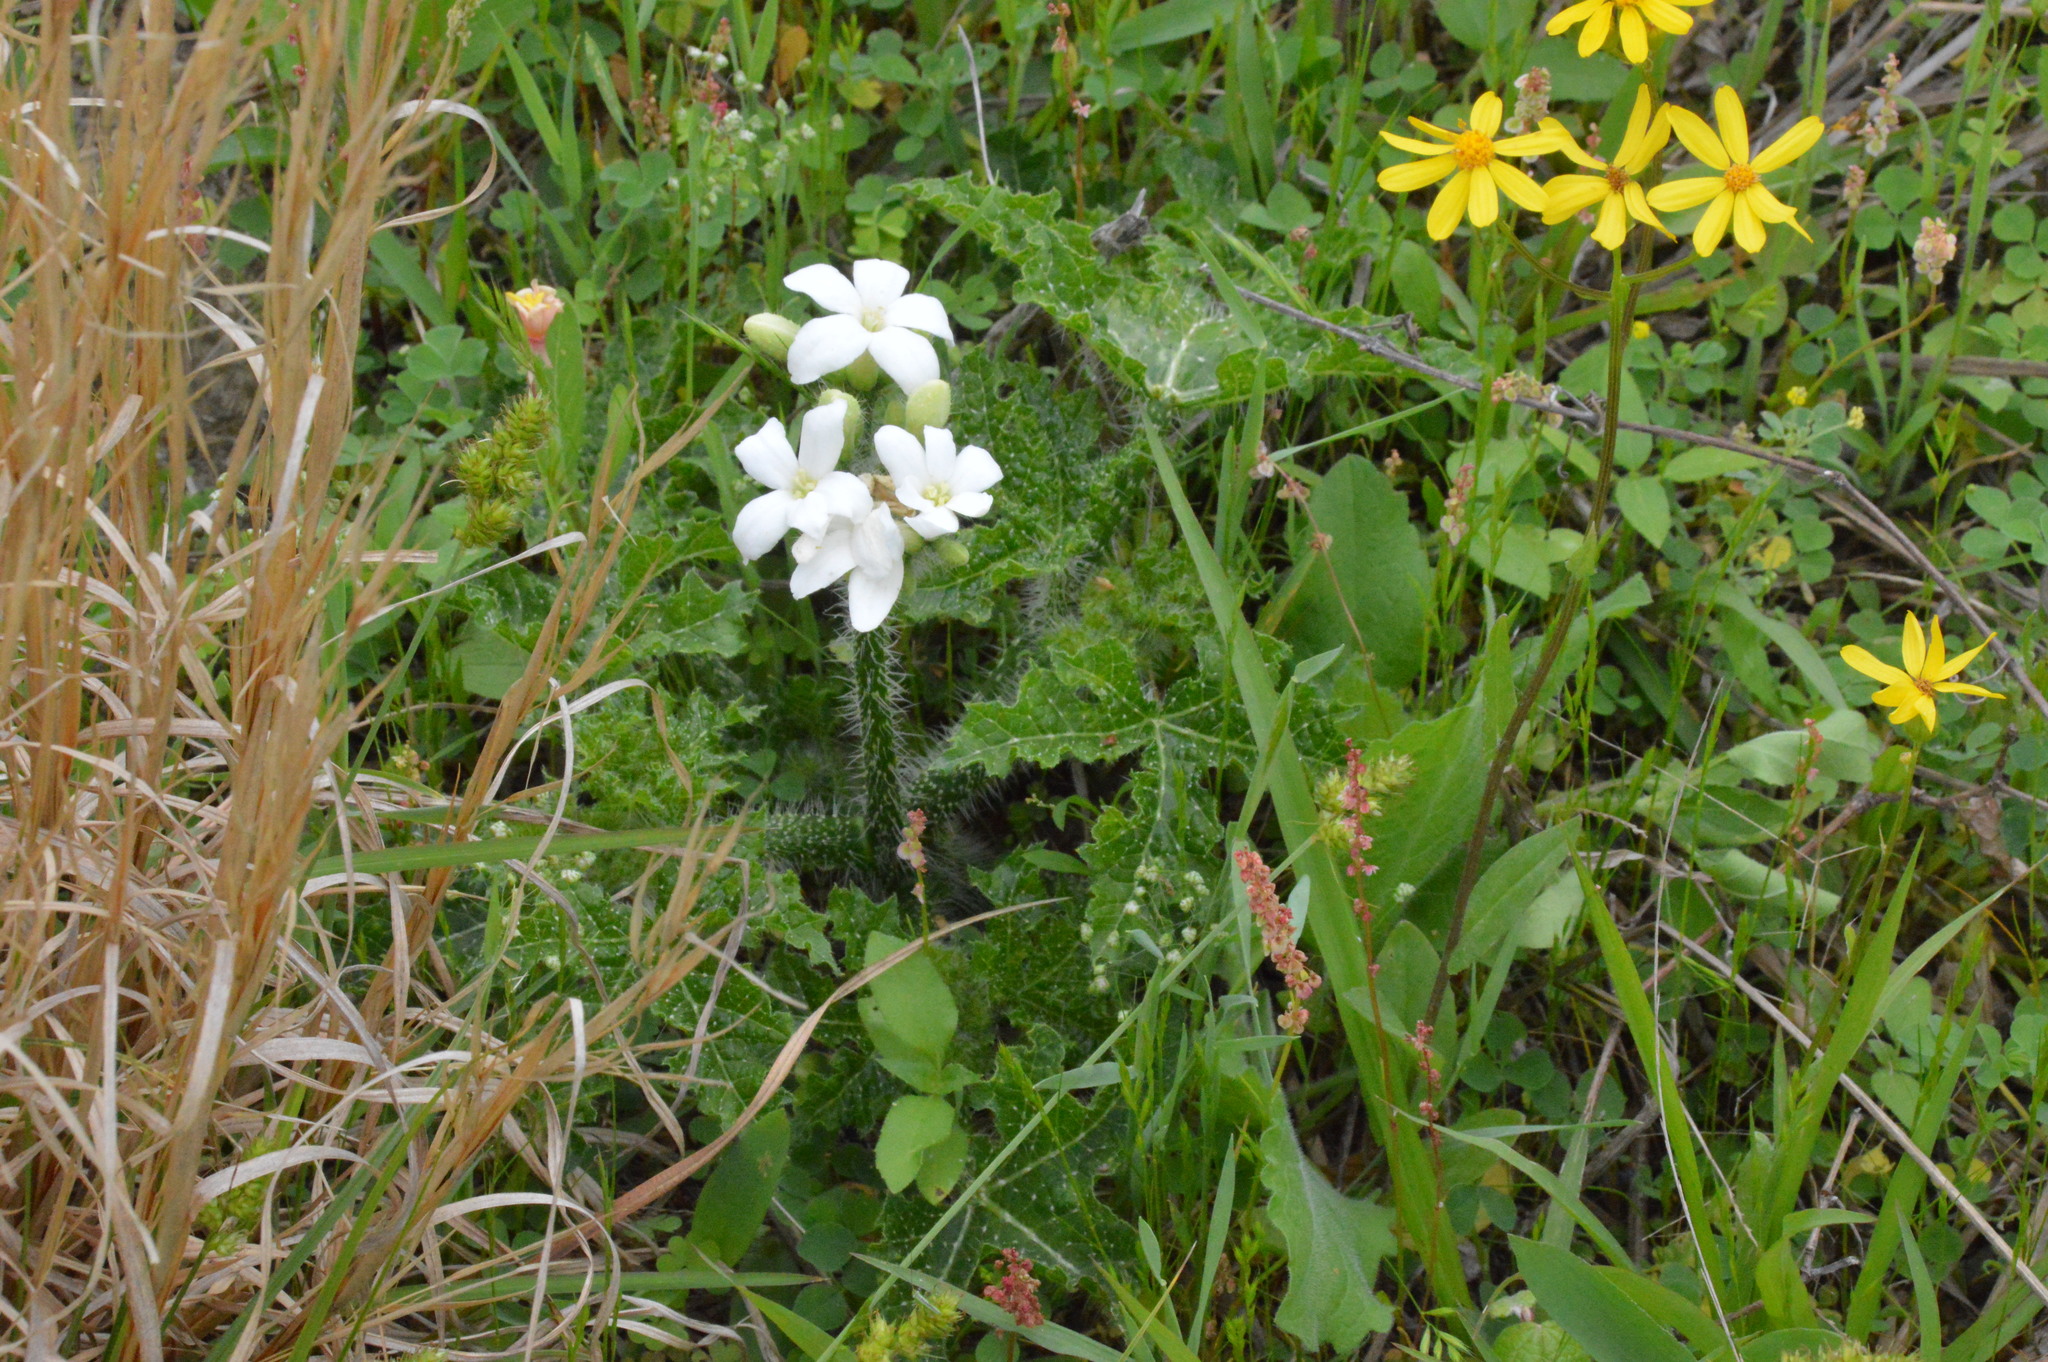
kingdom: Plantae
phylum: Tracheophyta
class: Magnoliopsida
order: Malpighiales
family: Euphorbiaceae
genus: Cnidoscolus
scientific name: Cnidoscolus texanus
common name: Texas bull-nettle
